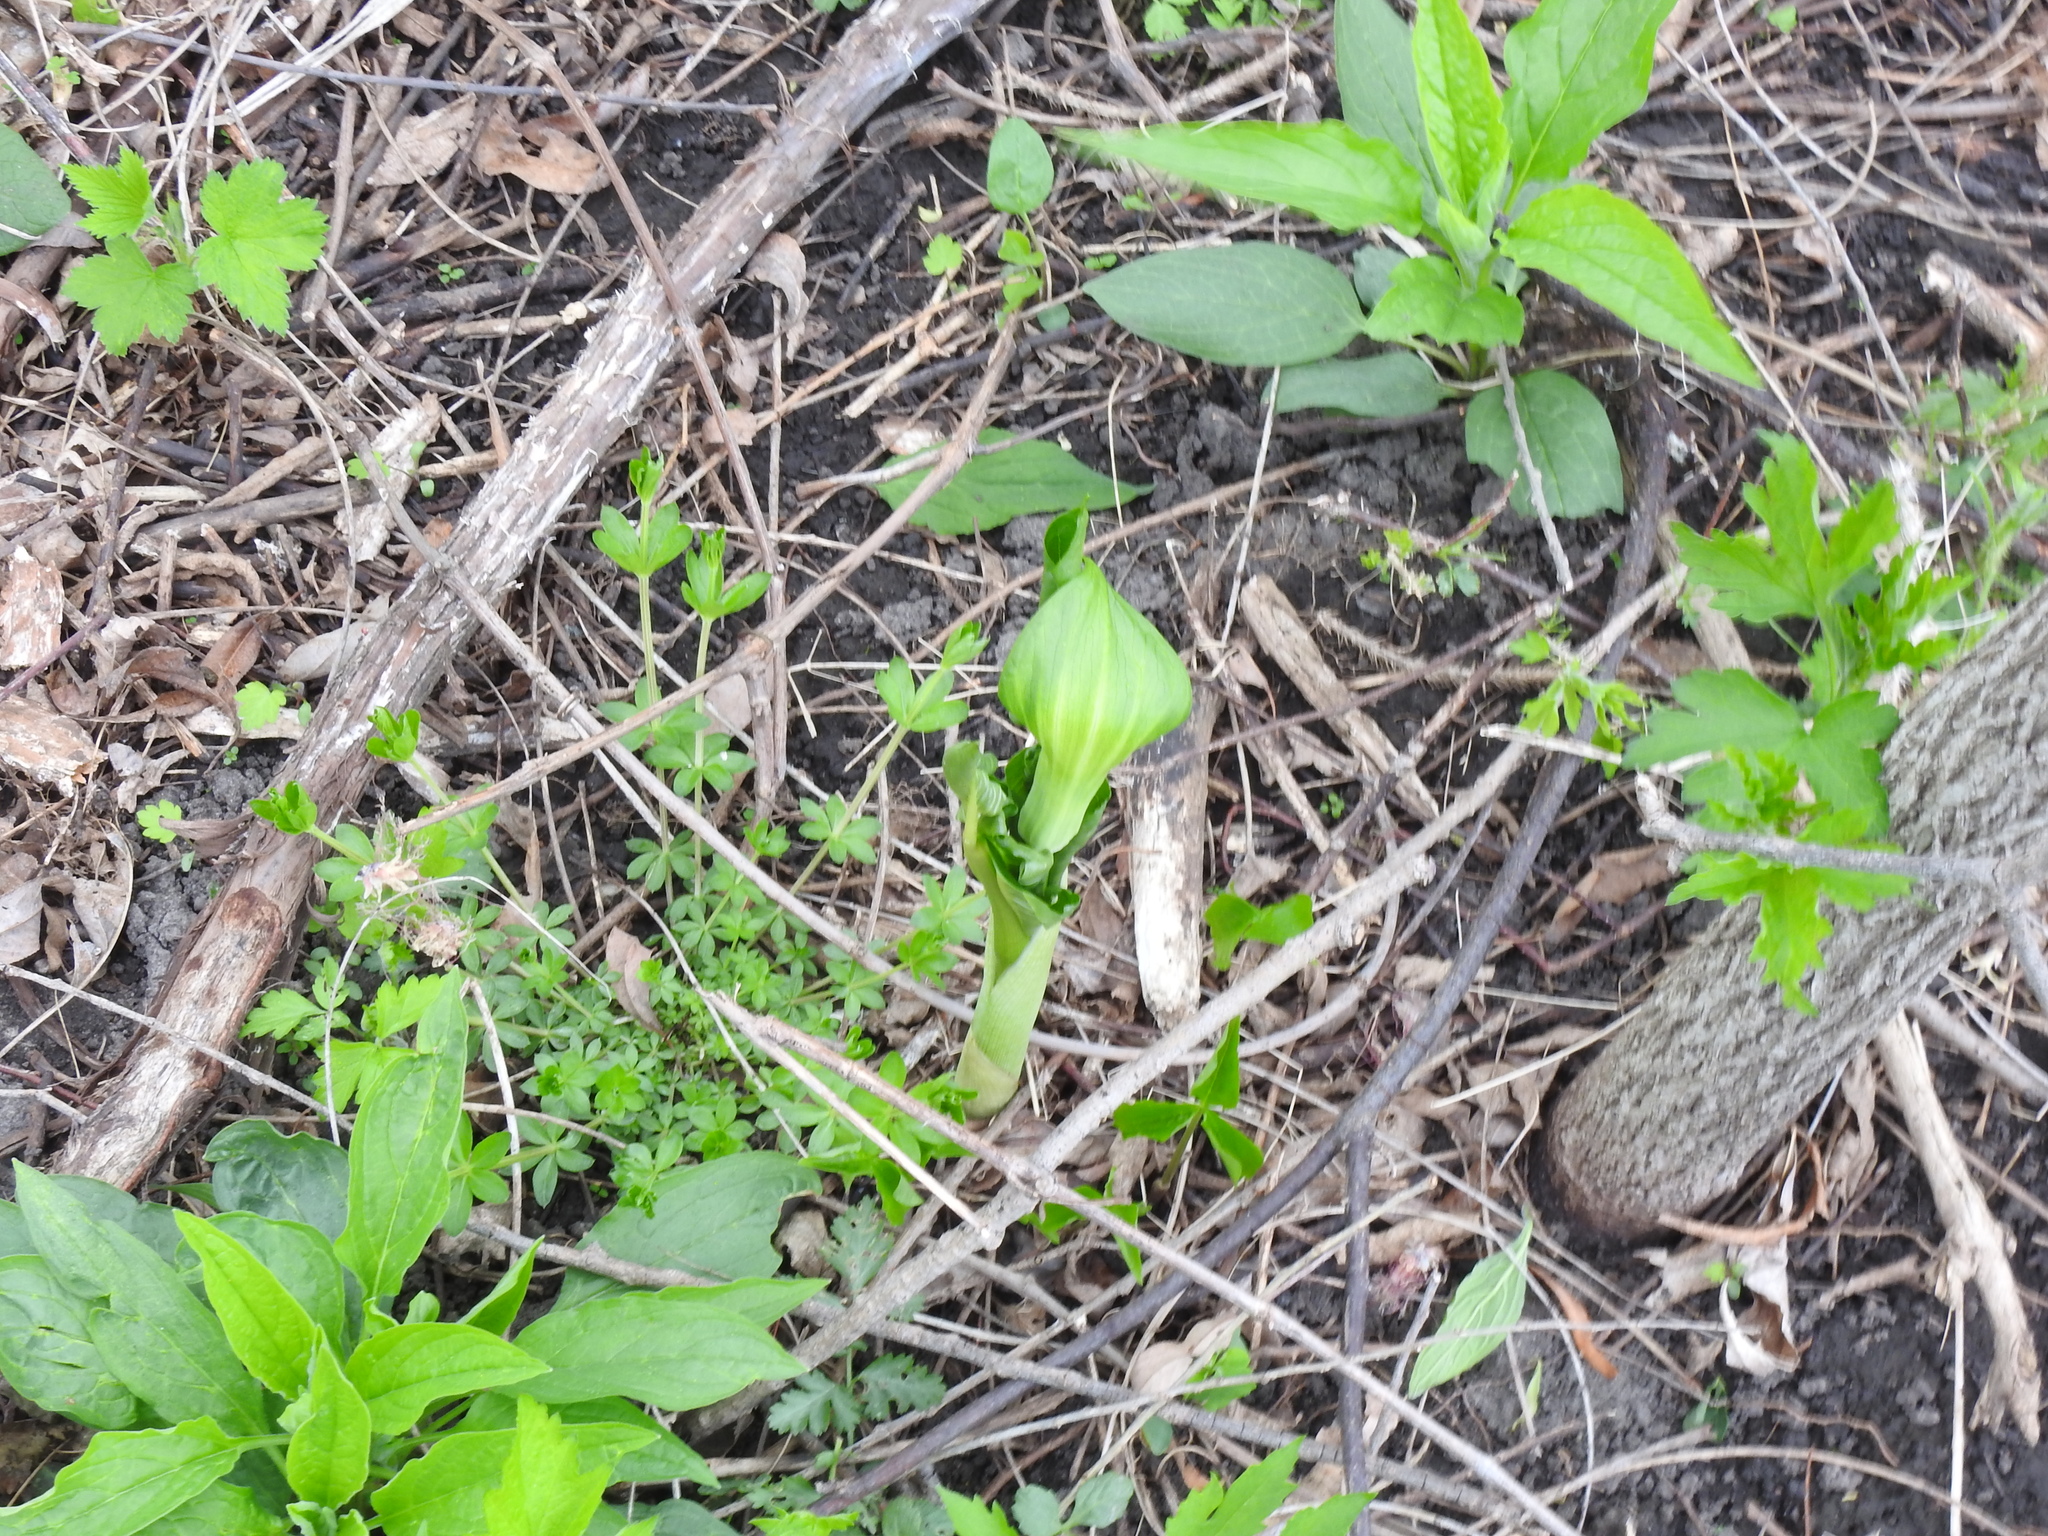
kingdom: Plantae
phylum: Tracheophyta
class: Liliopsida
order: Alismatales
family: Araceae
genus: Arisaema
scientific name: Arisaema triphyllum
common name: Jack-in-the-pulpit
